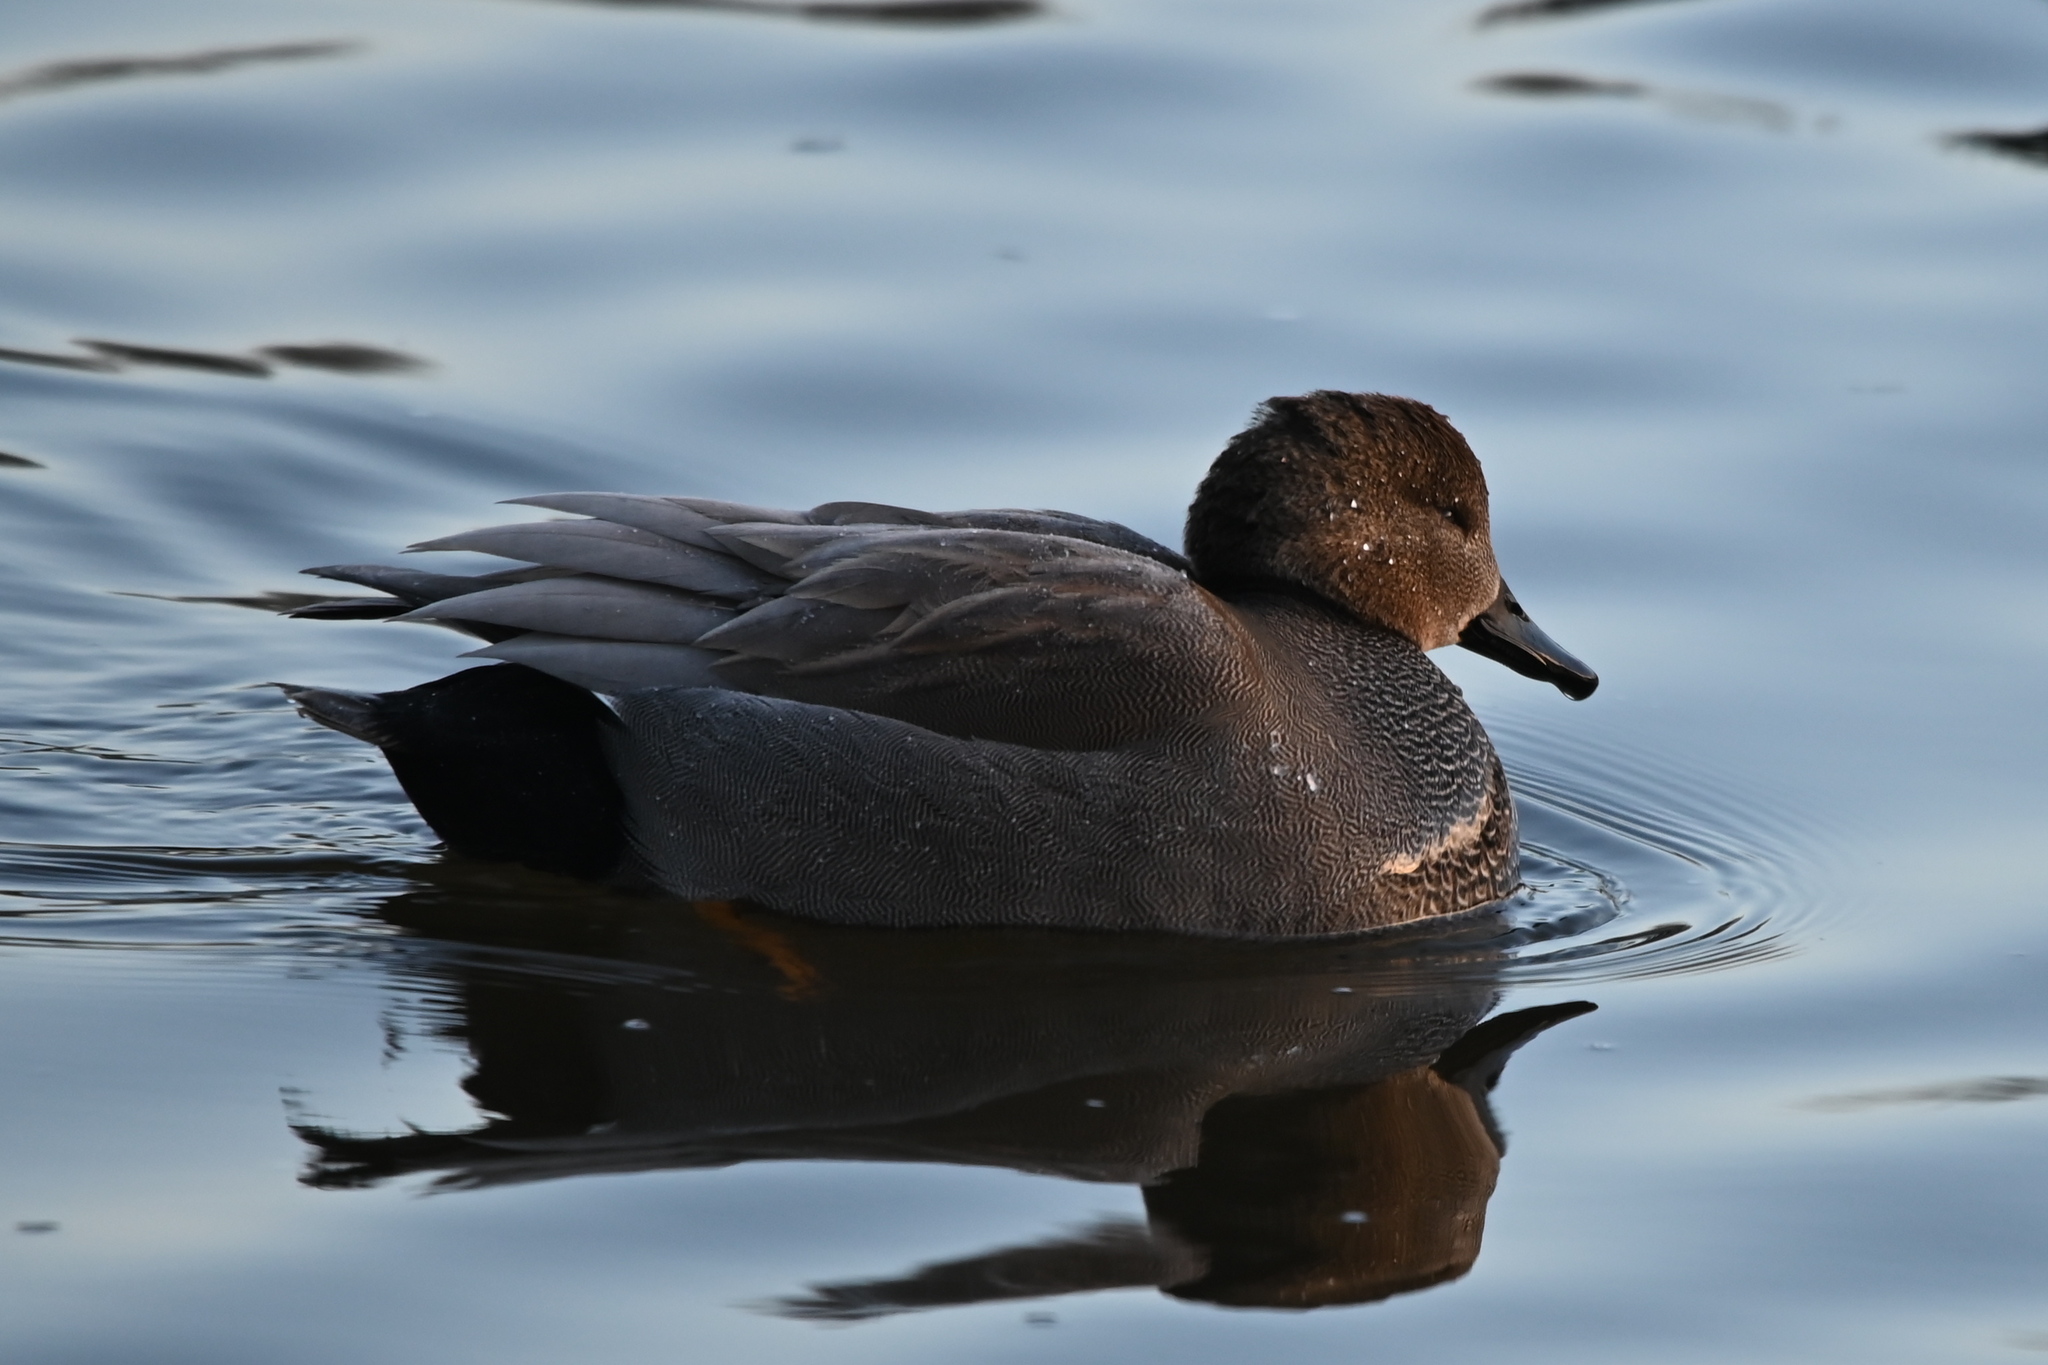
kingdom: Animalia
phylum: Chordata
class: Aves
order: Anseriformes
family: Anatidae
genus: Mareca
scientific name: Mareca strepera
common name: Gadwall
